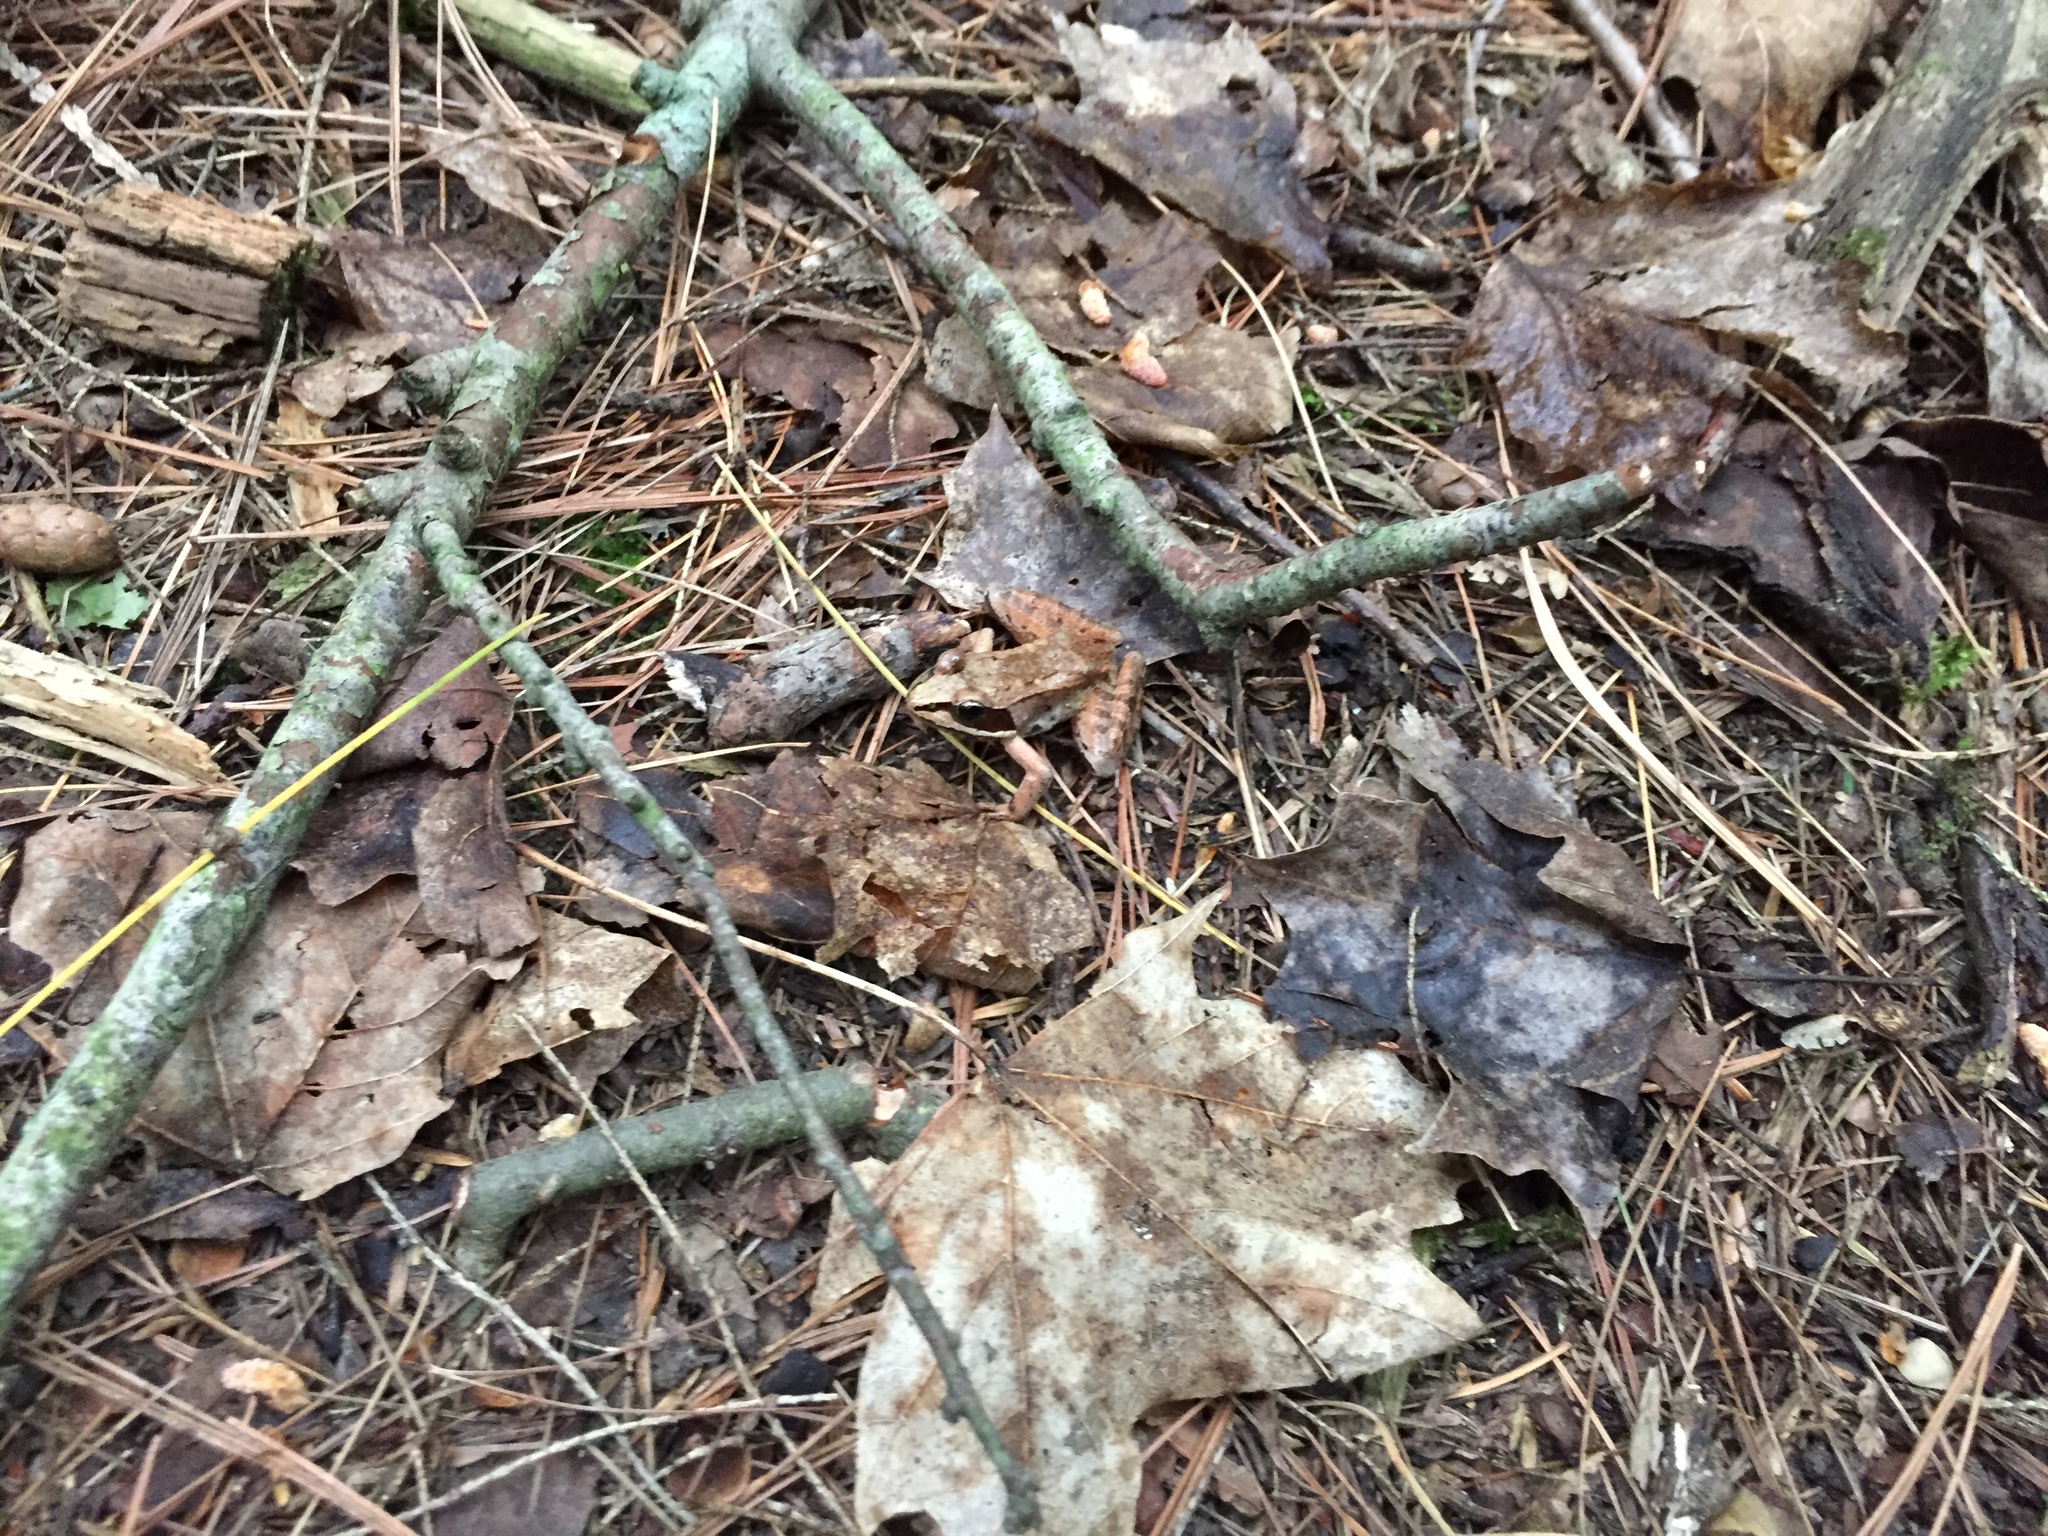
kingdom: Animalia
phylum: Chordata
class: Amphibia
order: Anura
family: Ranidae
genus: Lithobates
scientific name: Lithobates sylvaticus
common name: Wood frog
